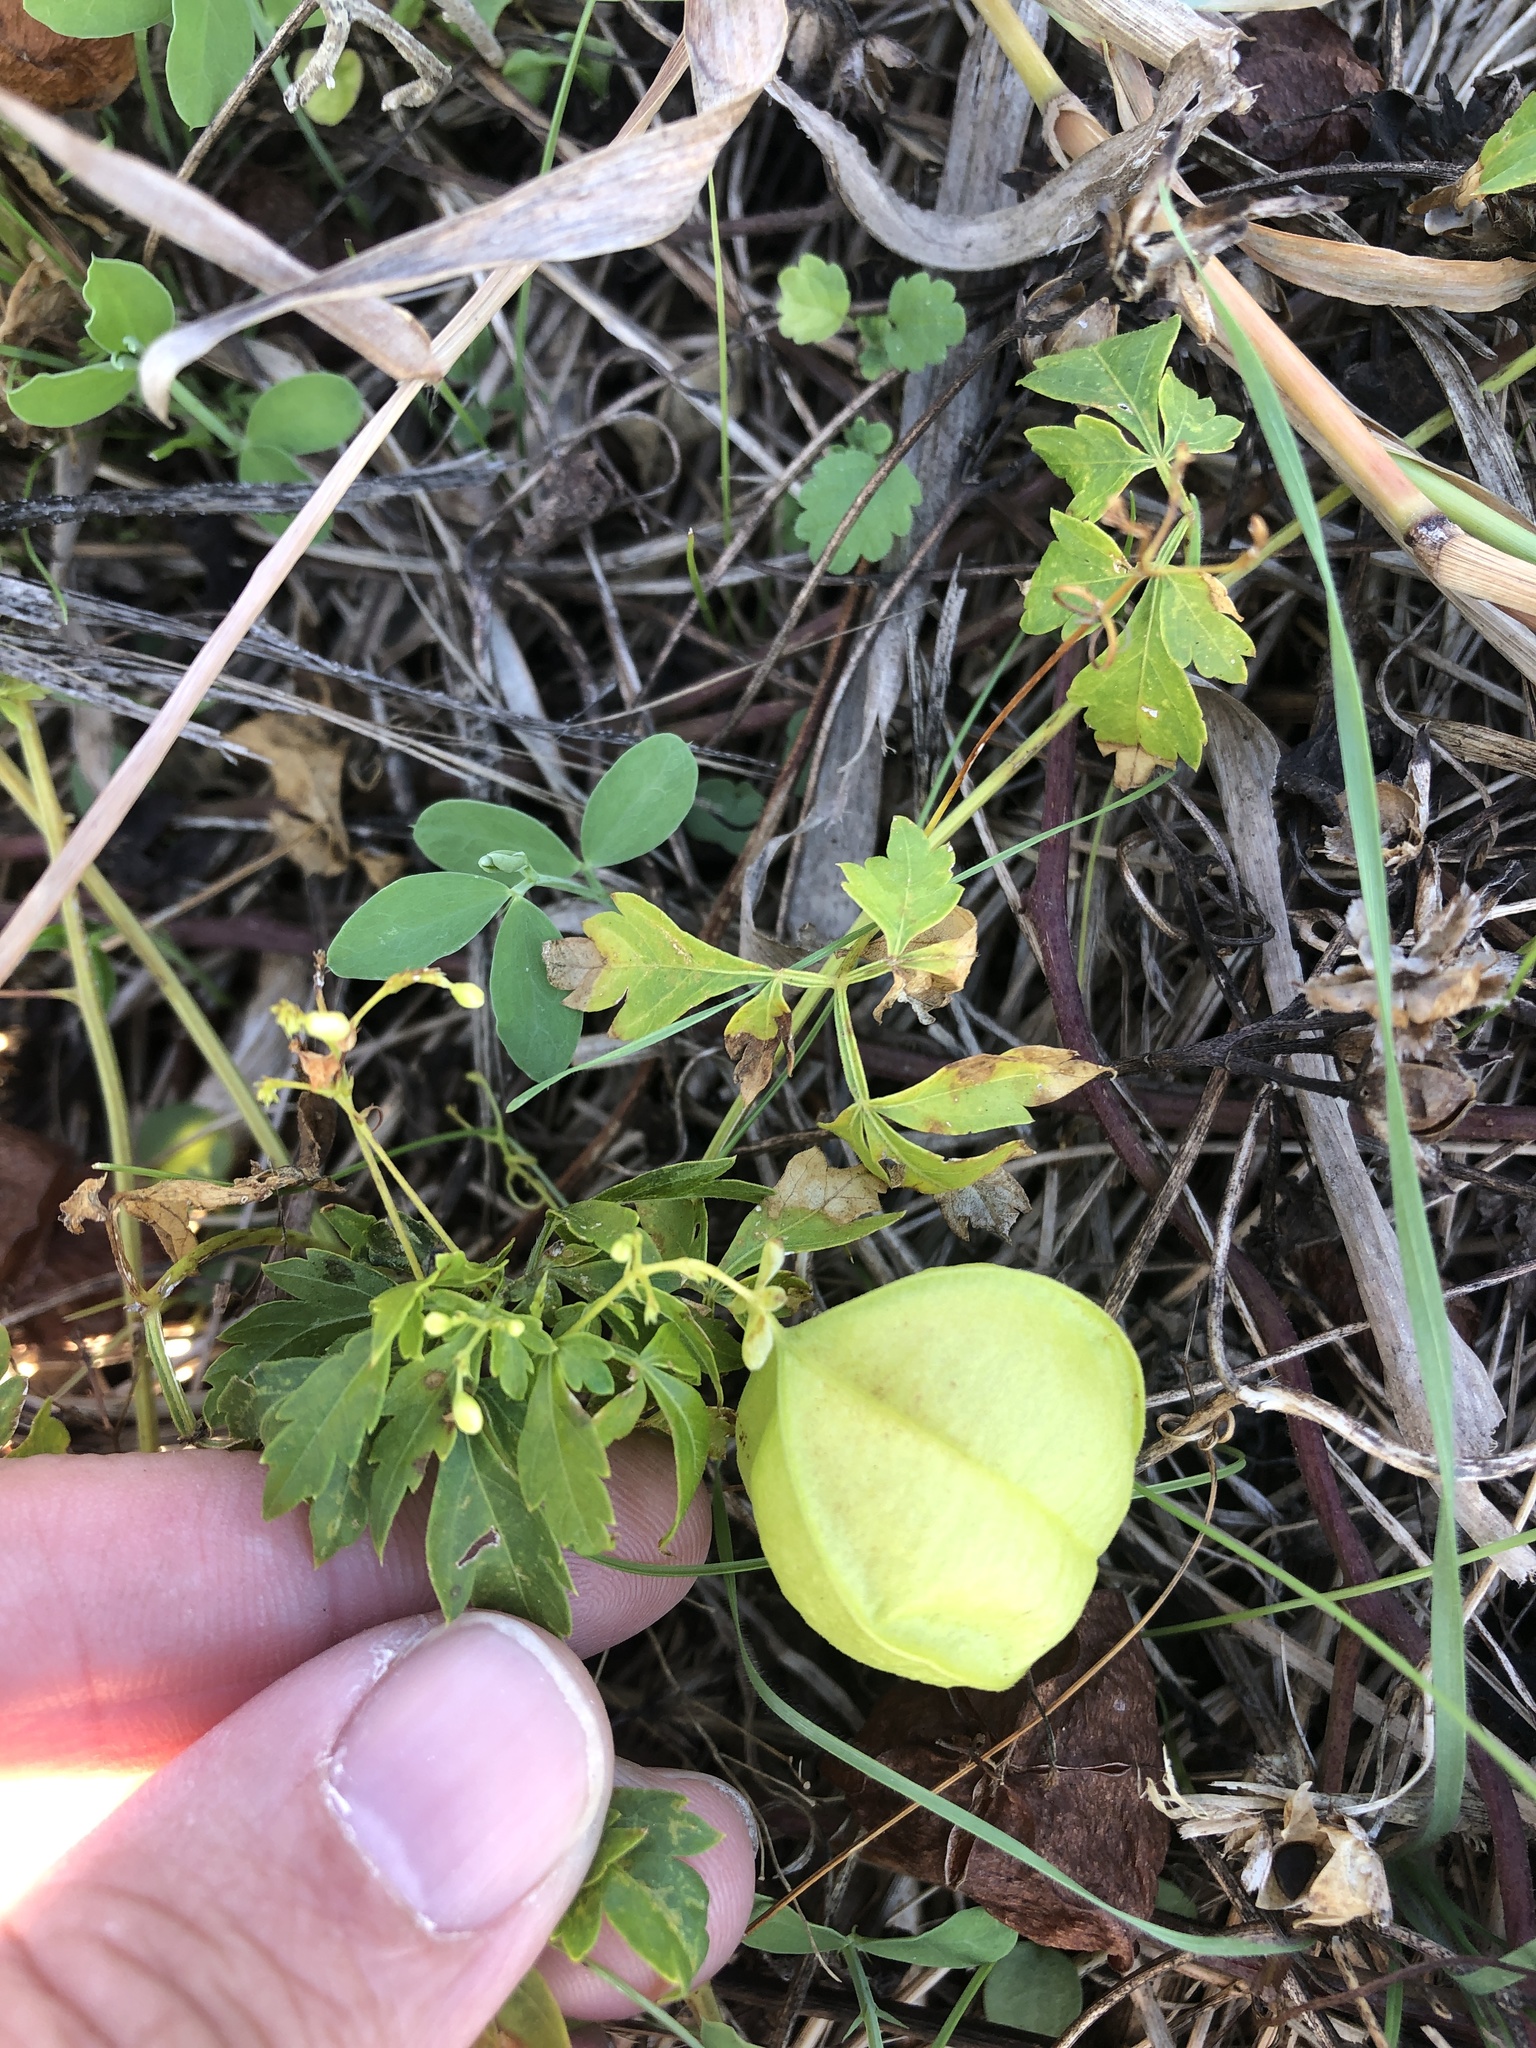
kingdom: Plantae
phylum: Tracheophyta
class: Magnoliopsida
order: Sapindales
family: Sapindaceae
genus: Cardiospermum
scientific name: Cardiospermum halicacabum
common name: Balloon vine
